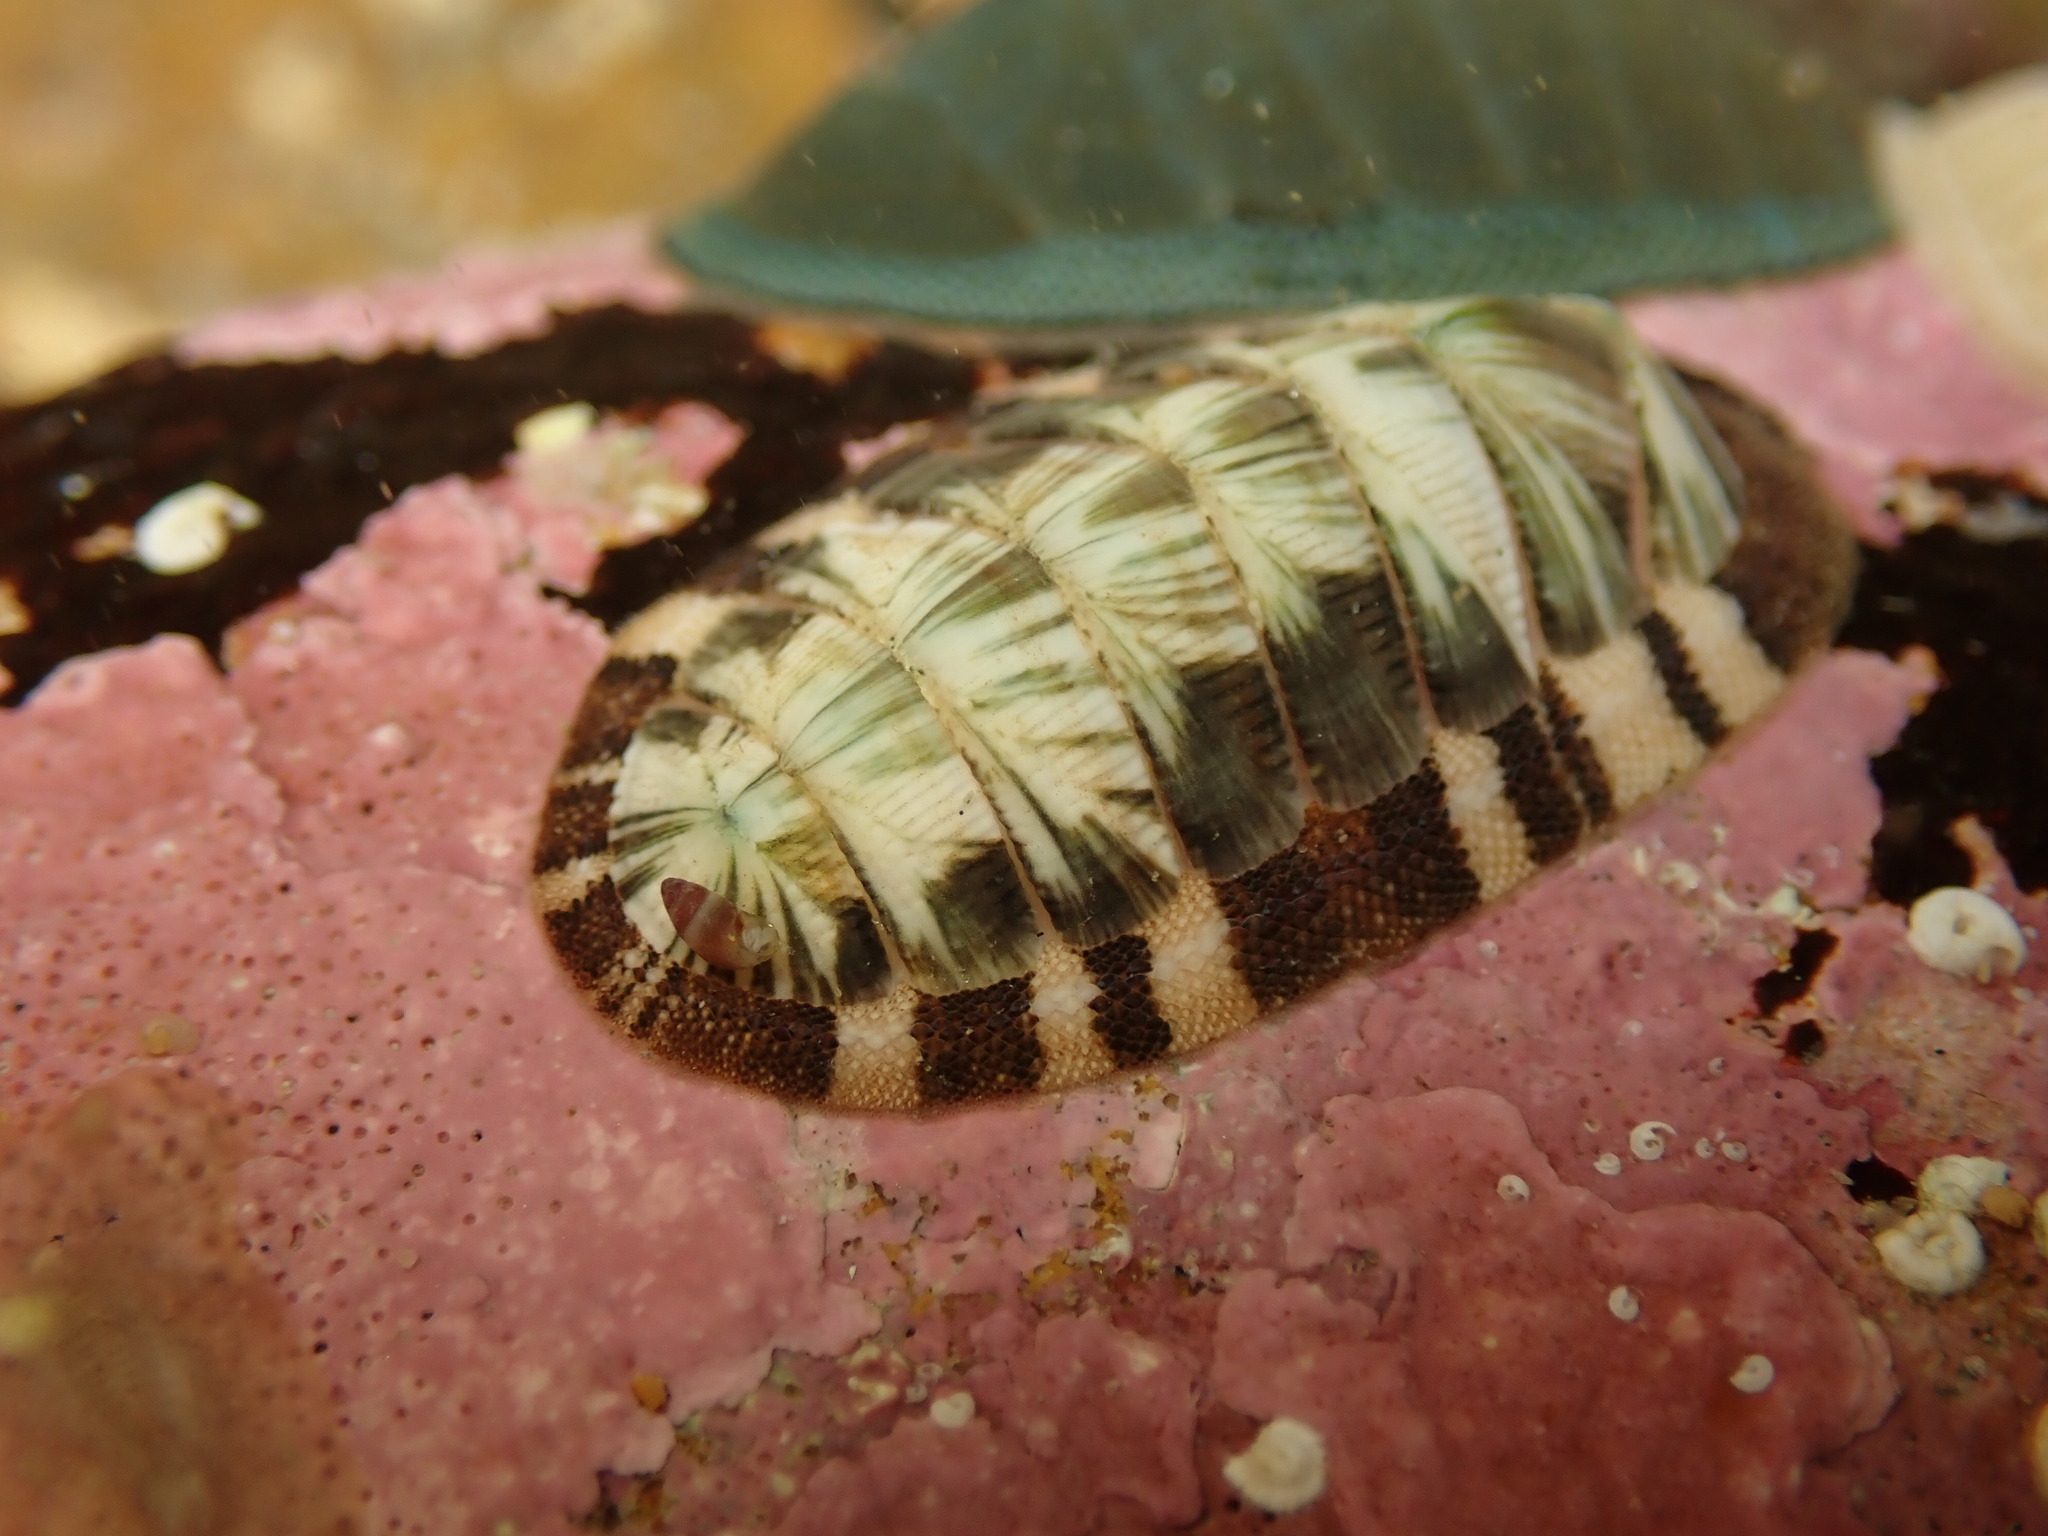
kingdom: Animalia
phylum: Mollusca
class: Polyplacophora
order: Chitonida
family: Chitonidae
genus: Rhyssoplax
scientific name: Rhyssoplax aerea
